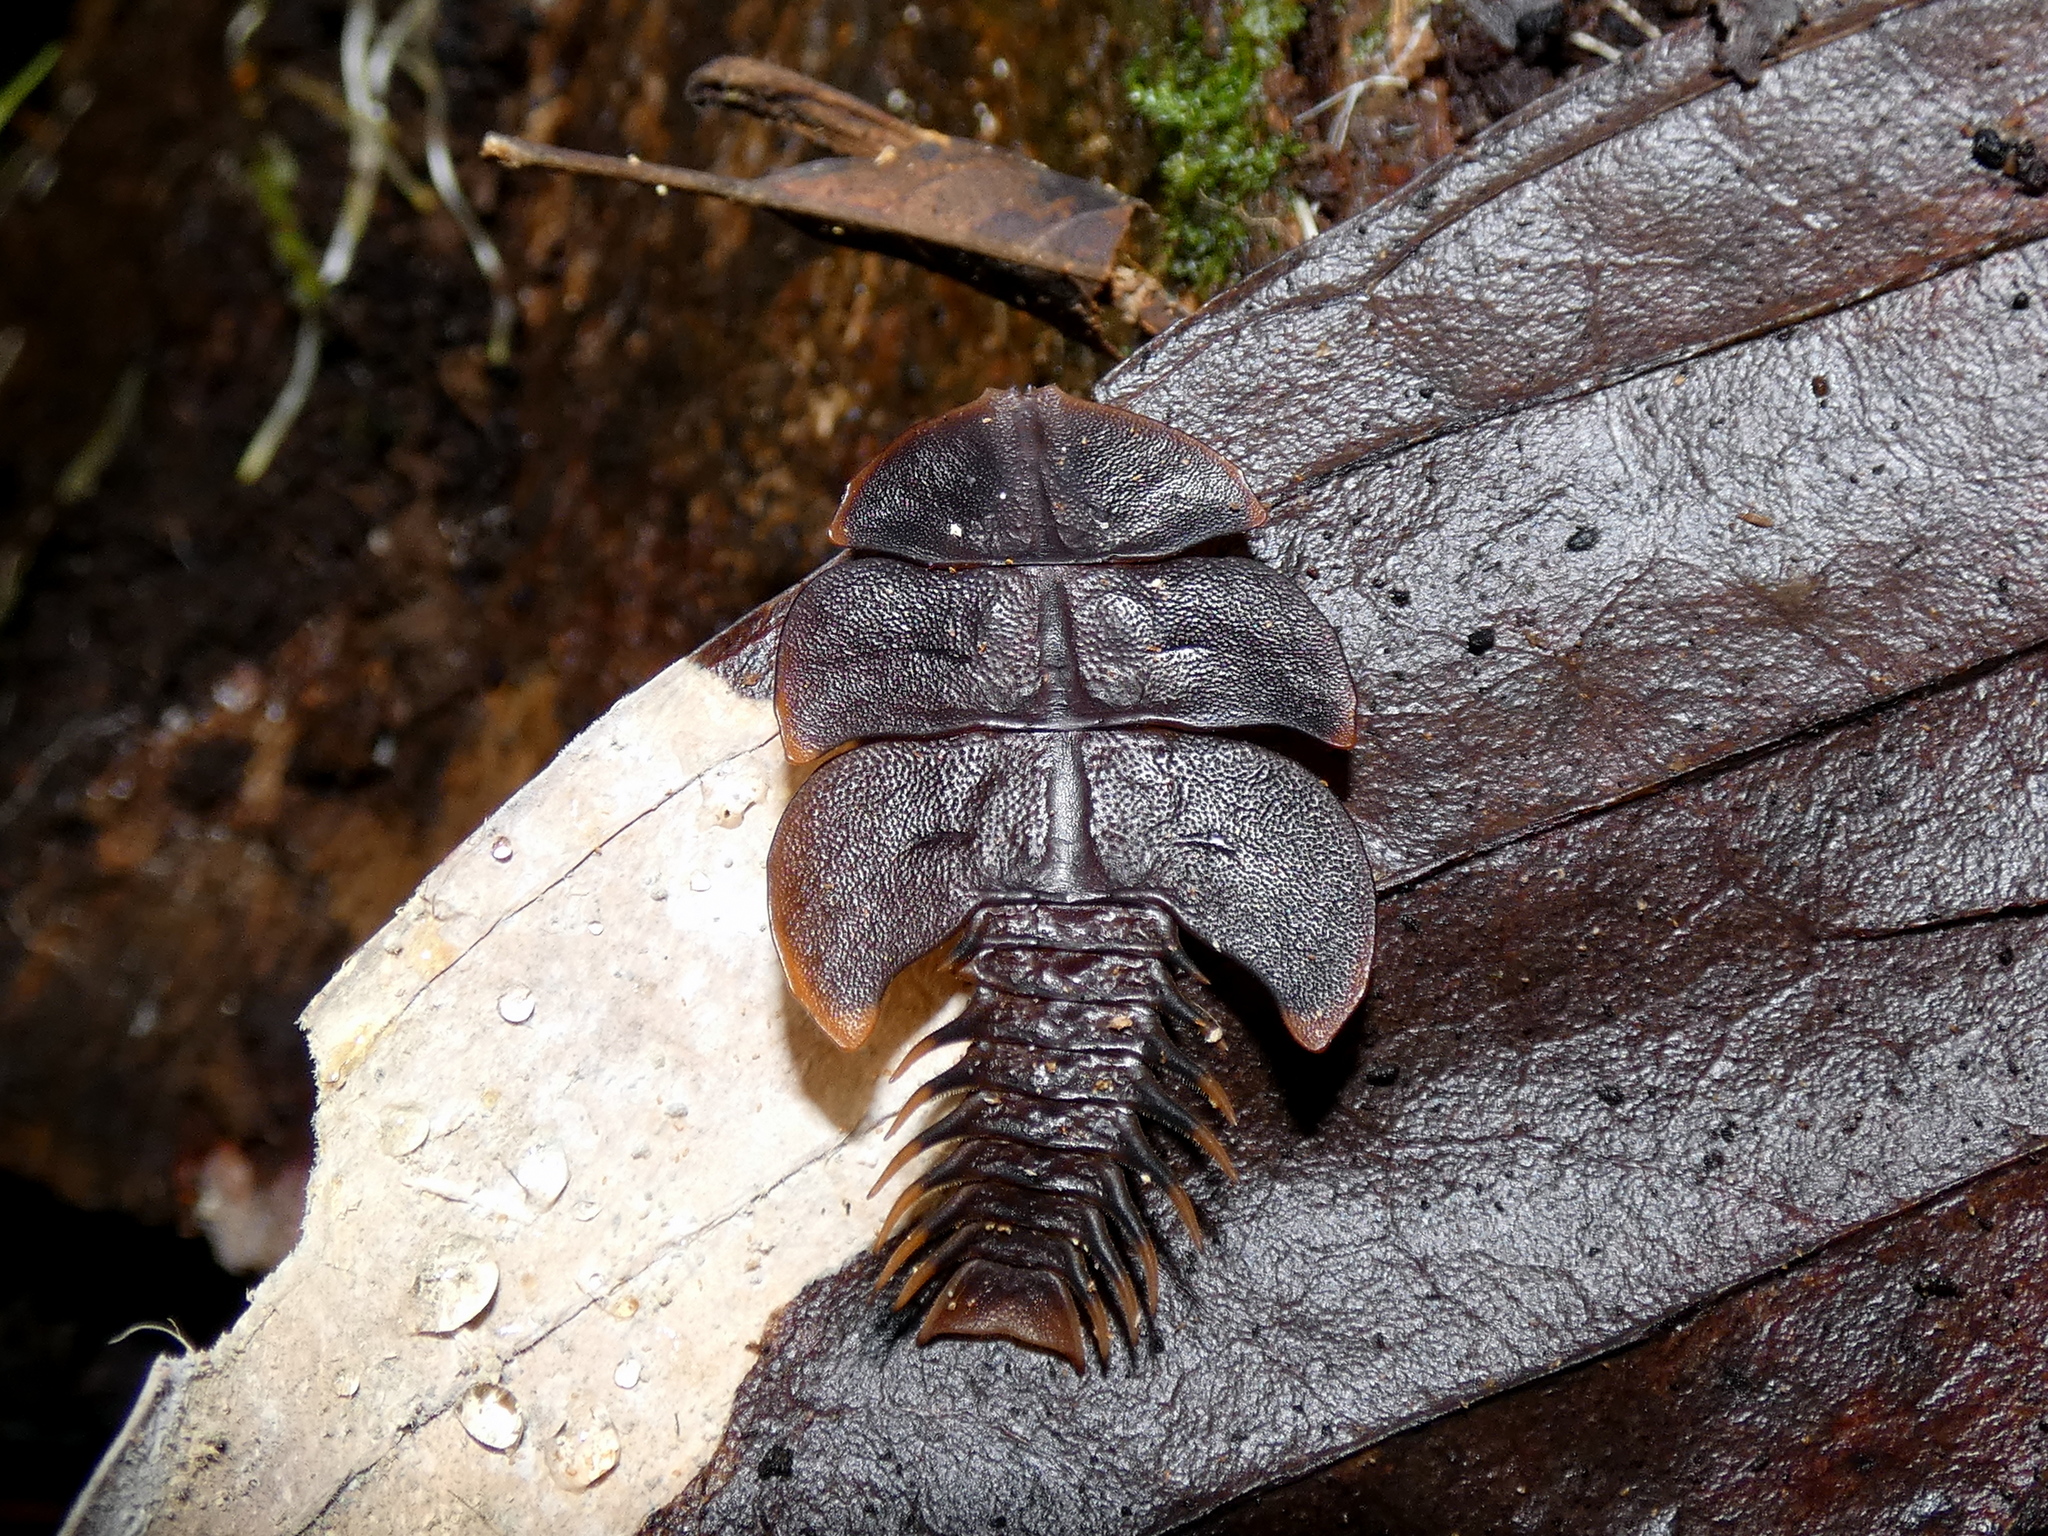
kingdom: Animalia
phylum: Arthropoda
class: Insecta
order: Coleoptera
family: Lycidae
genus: Platerodrilus
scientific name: Platerodrilus foliaceus
